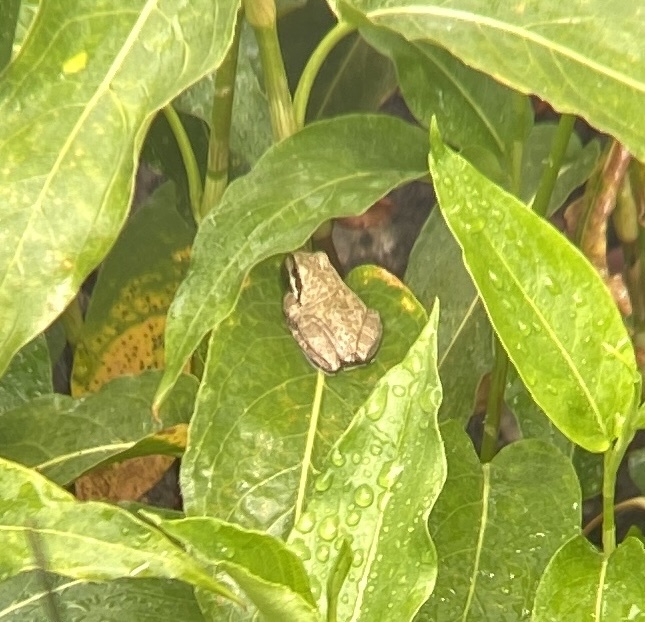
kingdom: Animalia
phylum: Chordata
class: Amphibia
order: Anura
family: Hylidae
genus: Pseudacris
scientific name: Pseudacris regilla
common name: Pacific chorus frog
